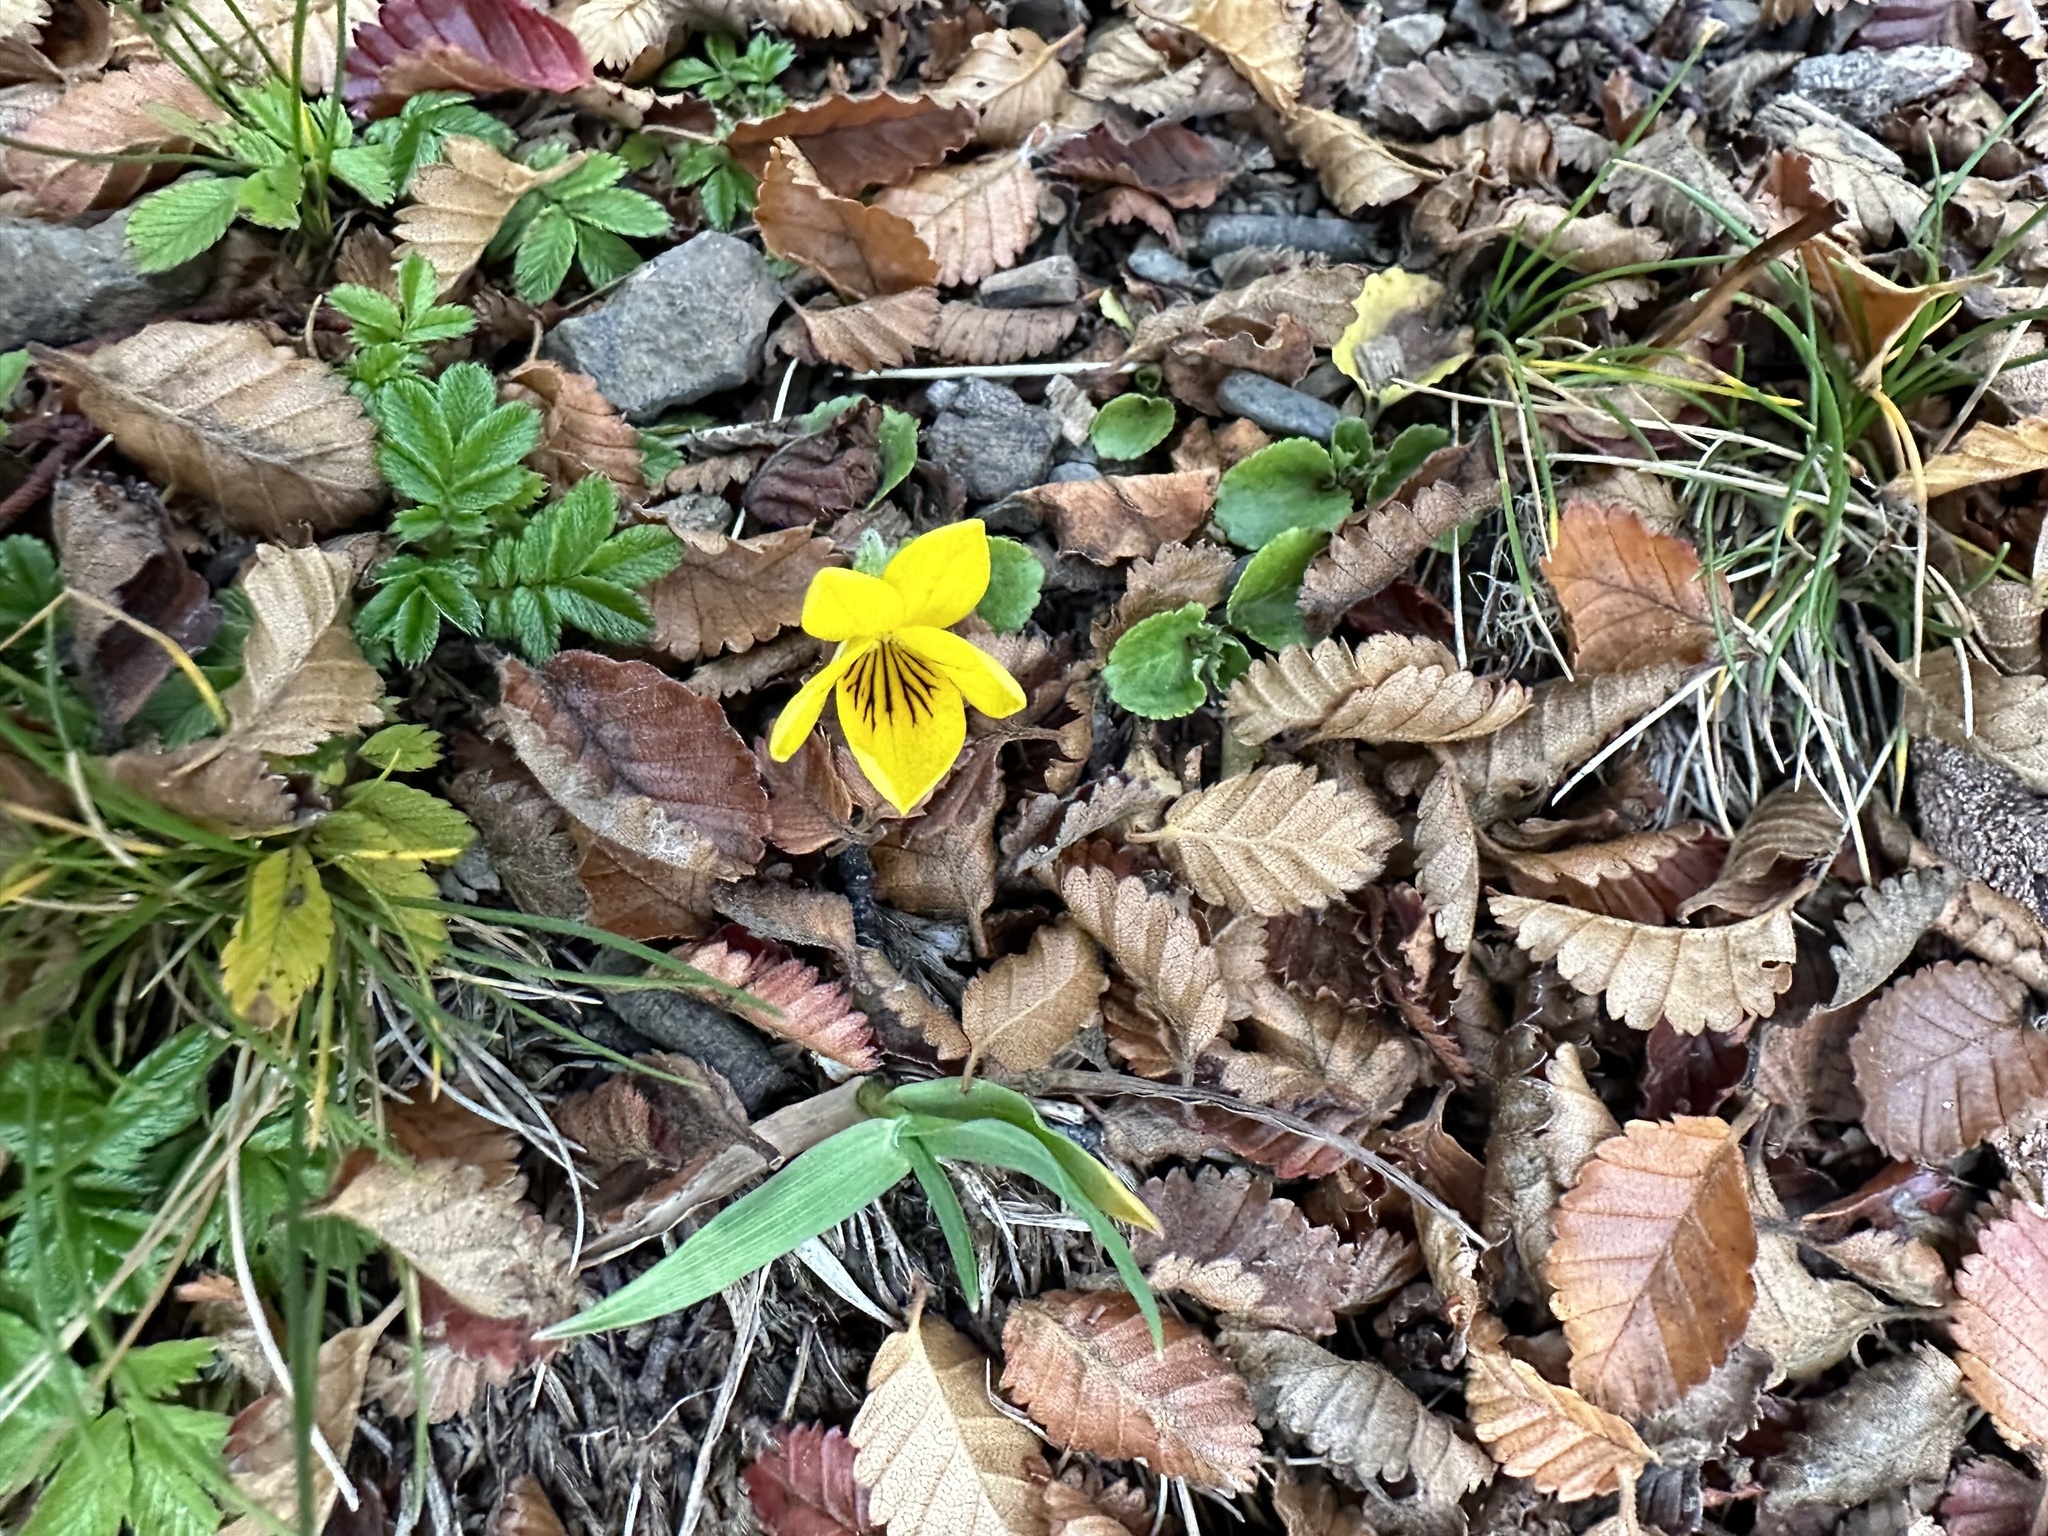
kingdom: Plantae
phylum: Tracheophyta
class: Magnoliopsida
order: Malpighiales
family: Violaceae
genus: Viola
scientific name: Viola reichei
